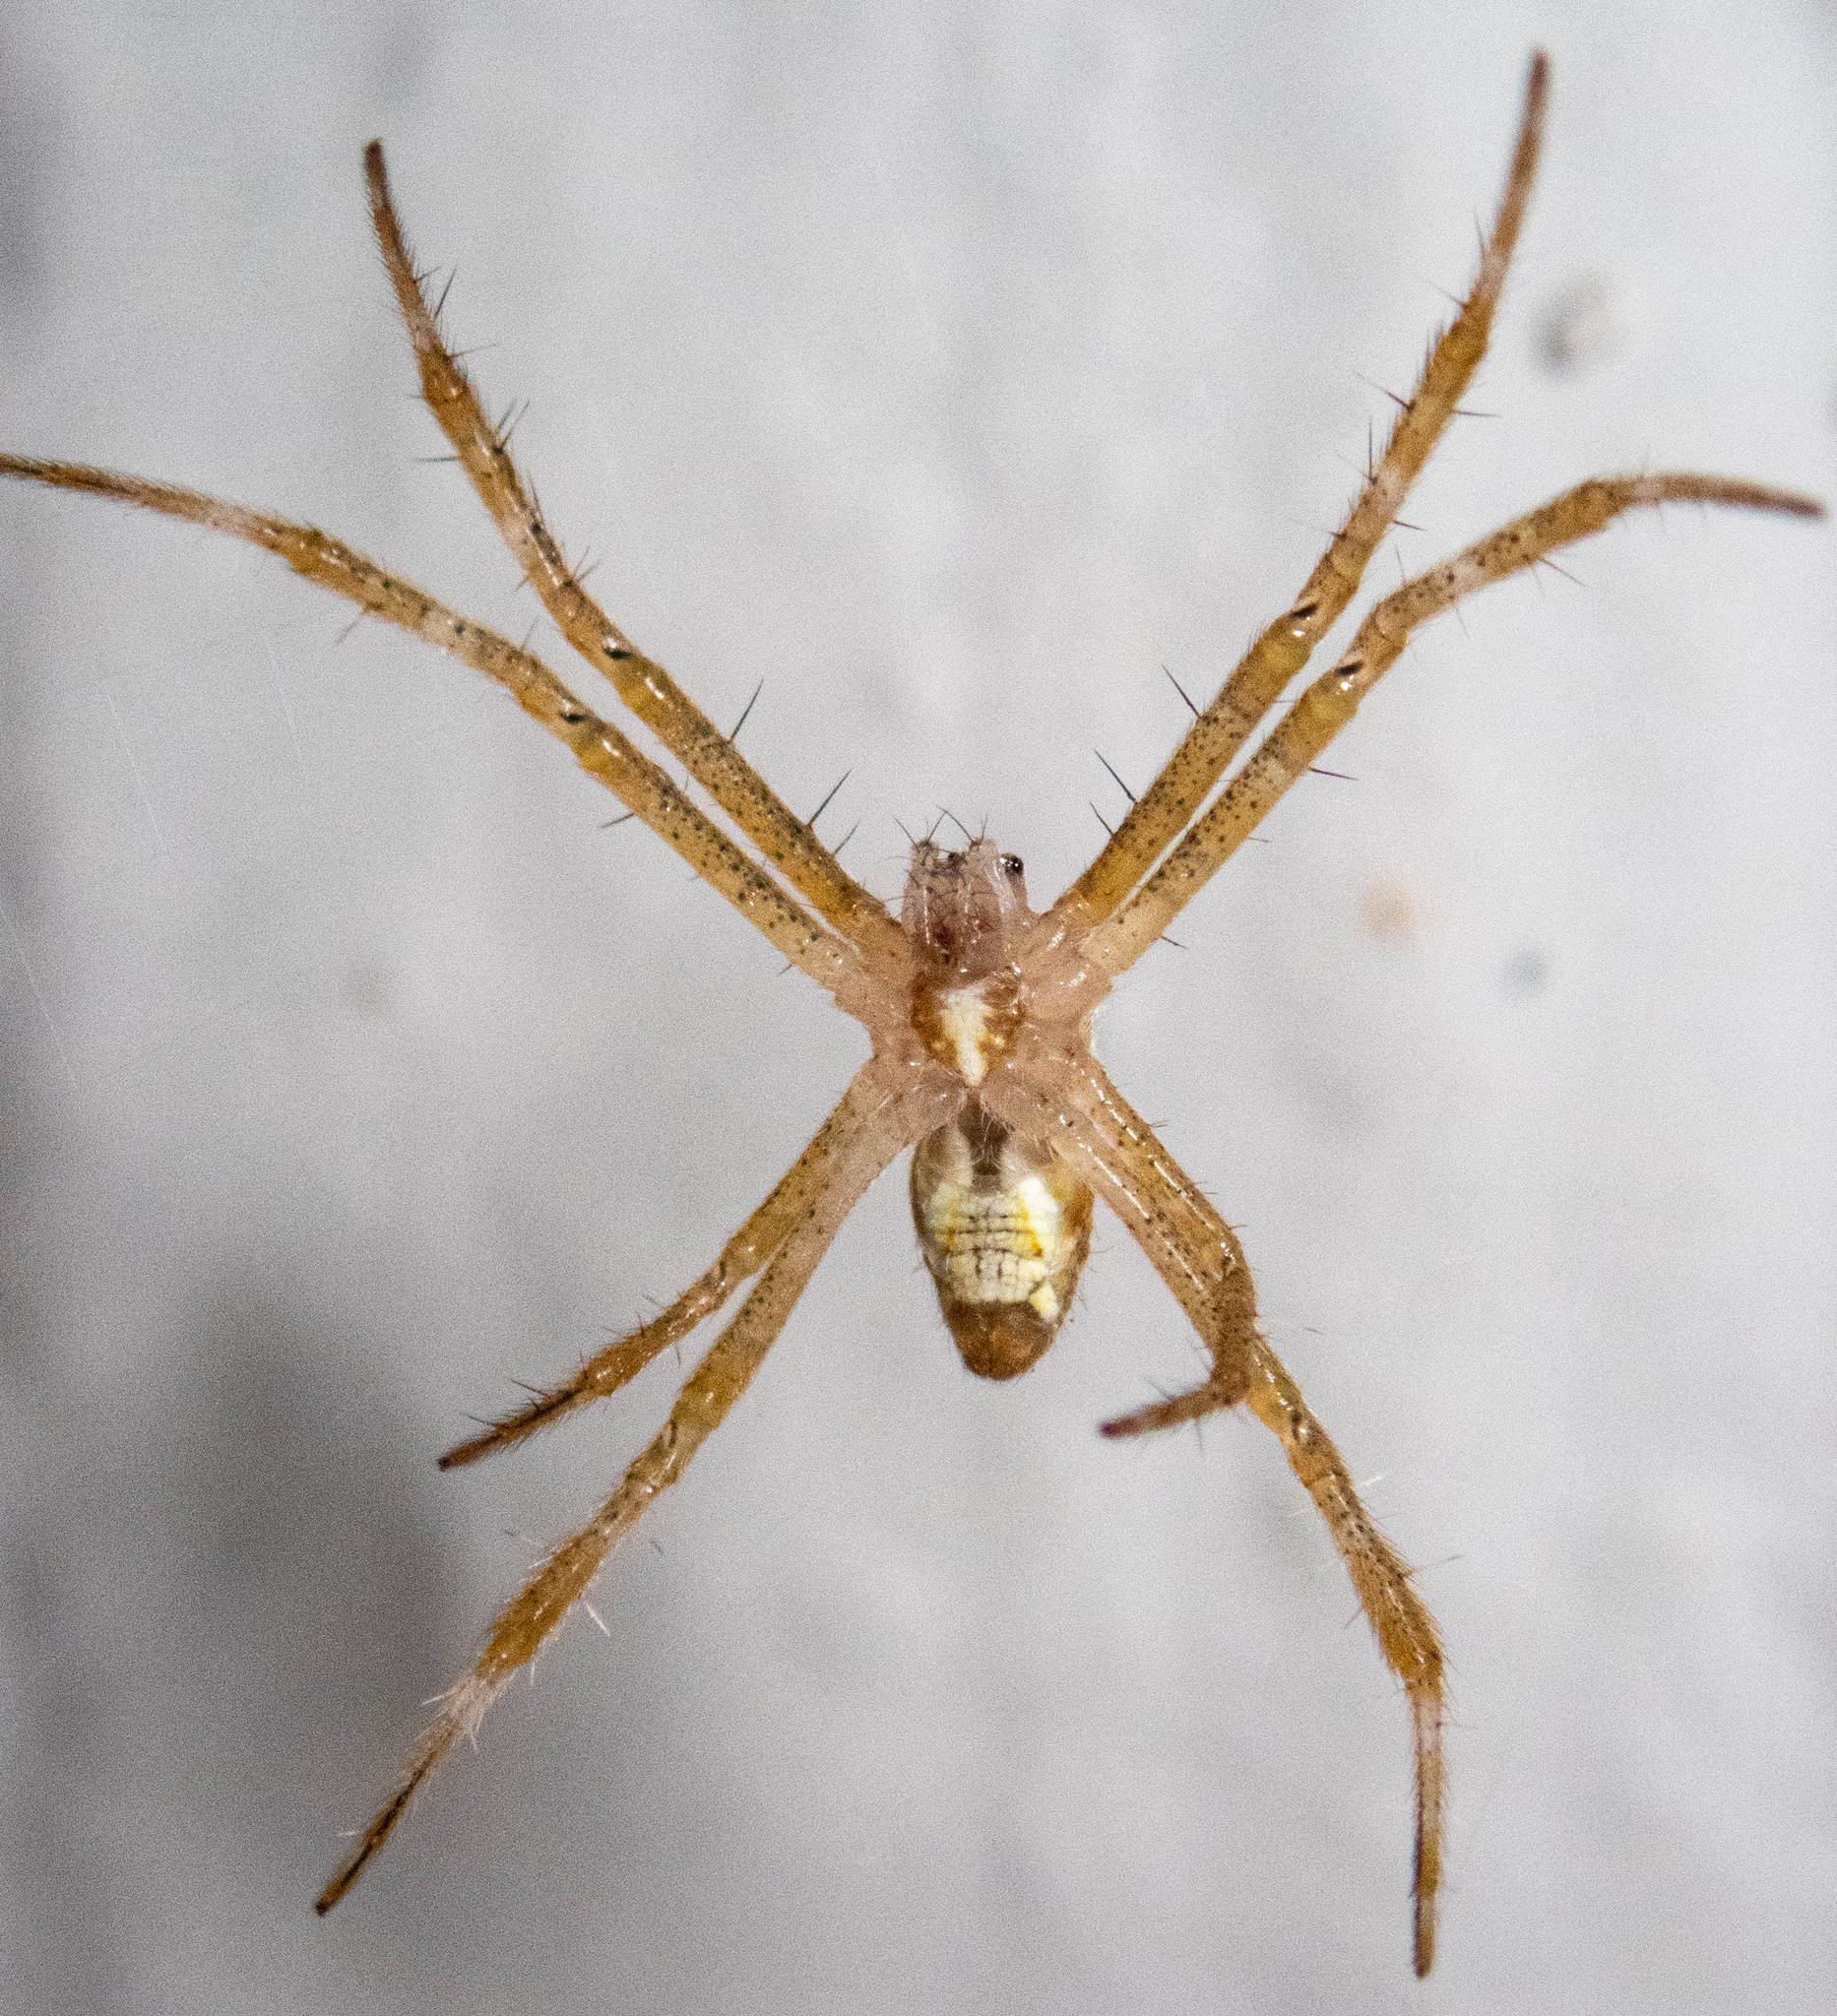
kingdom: Animalia
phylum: Arthropoda
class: Arachnida
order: Araneae
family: Araneidae
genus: Argiope
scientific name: Argiope appensa
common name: Garden spider
